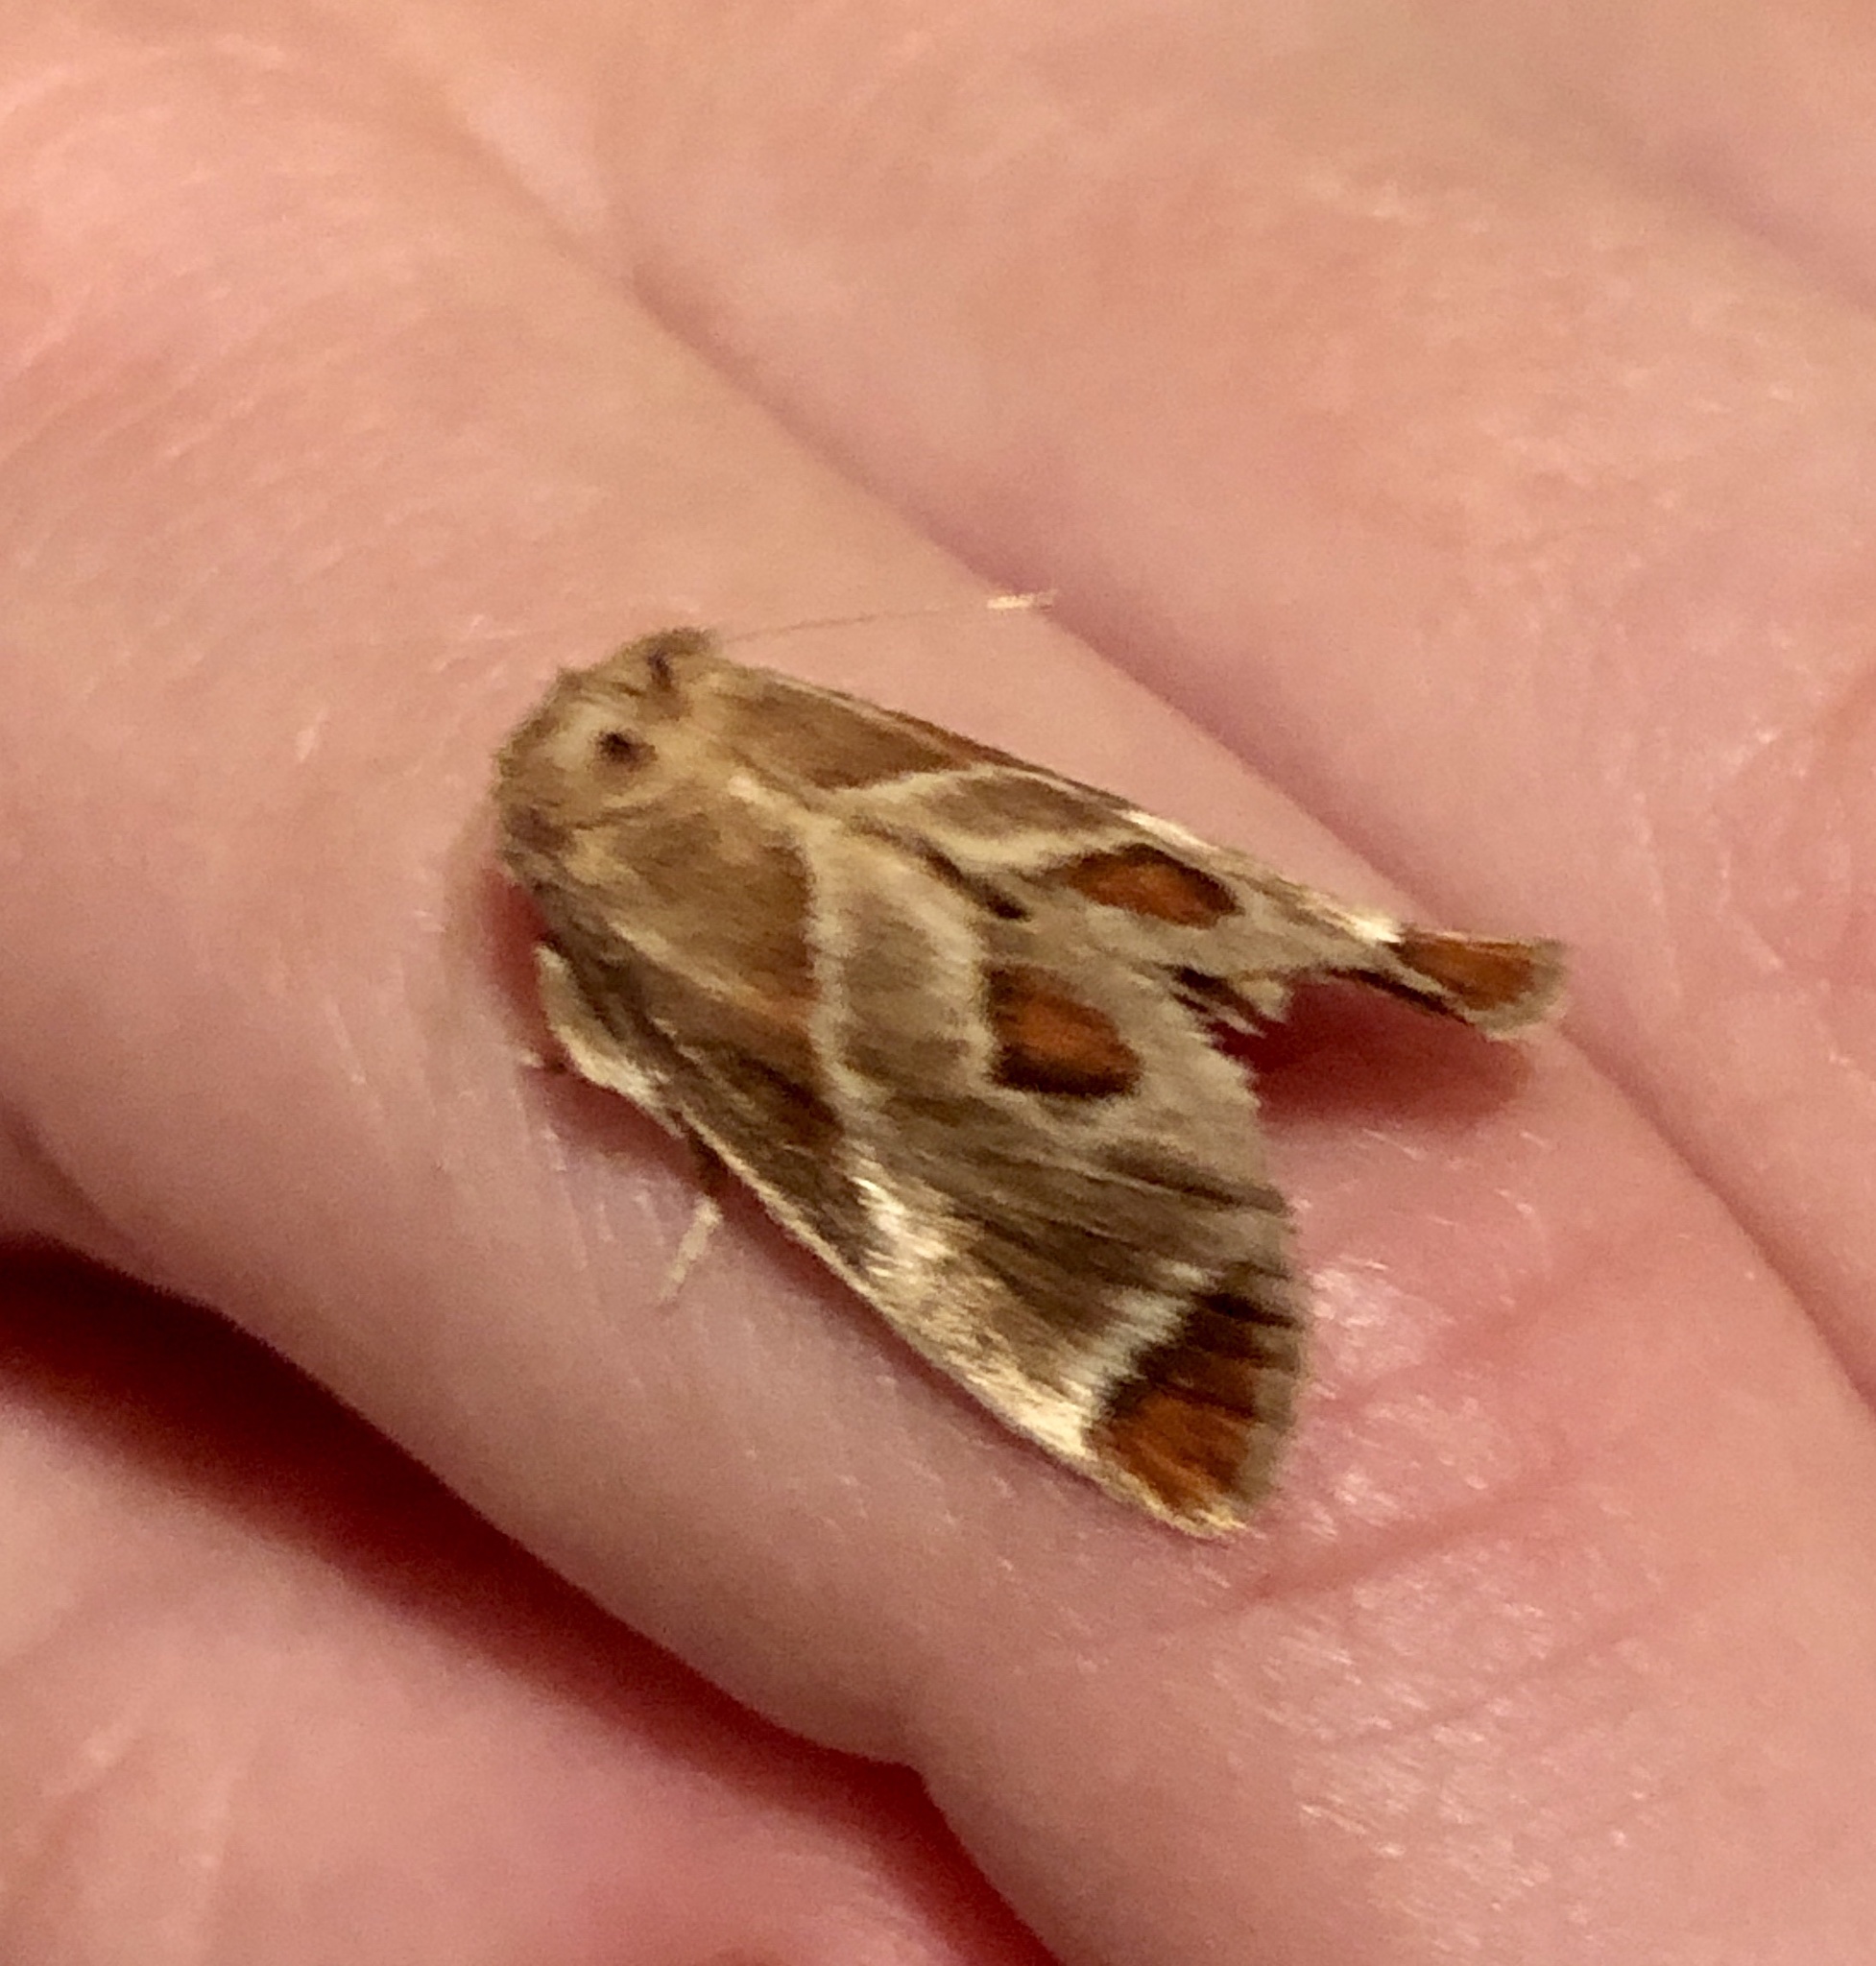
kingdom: Animalia
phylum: Arthropoda
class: Insecta
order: Lepidoptera
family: Limacodidae
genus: Apoda
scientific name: Apoda biguttata
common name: Shagreened slug moth
